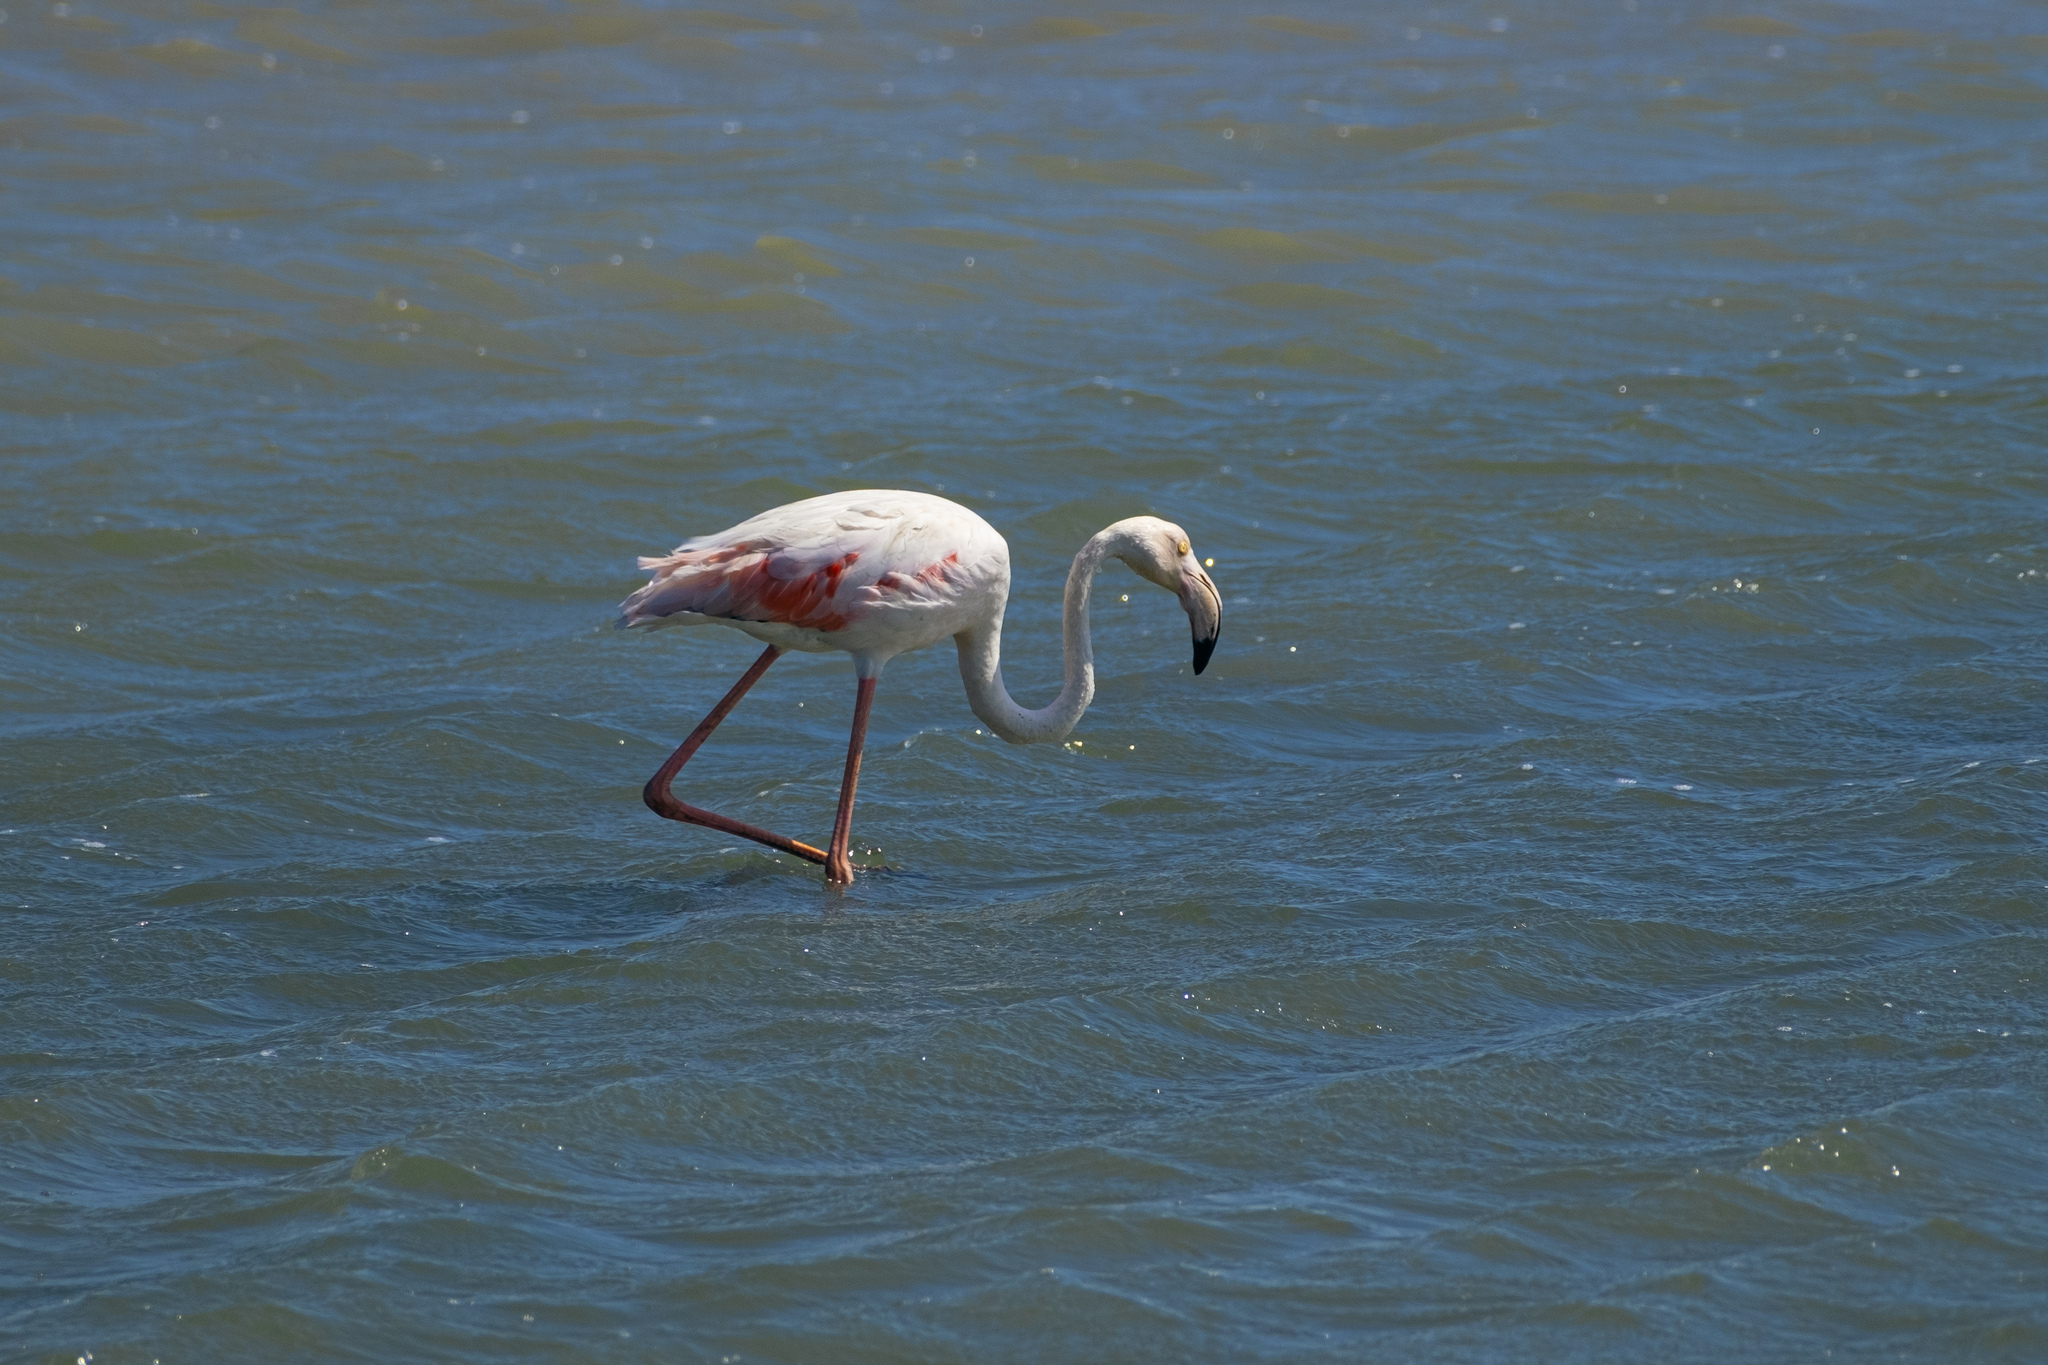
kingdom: Animalia
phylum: Chordata
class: Aves
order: Phoenicopteriformes
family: Phoenicopteridae
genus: Phoenicopterus
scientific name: Phoenicopterus roseus
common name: Greater flamingo
